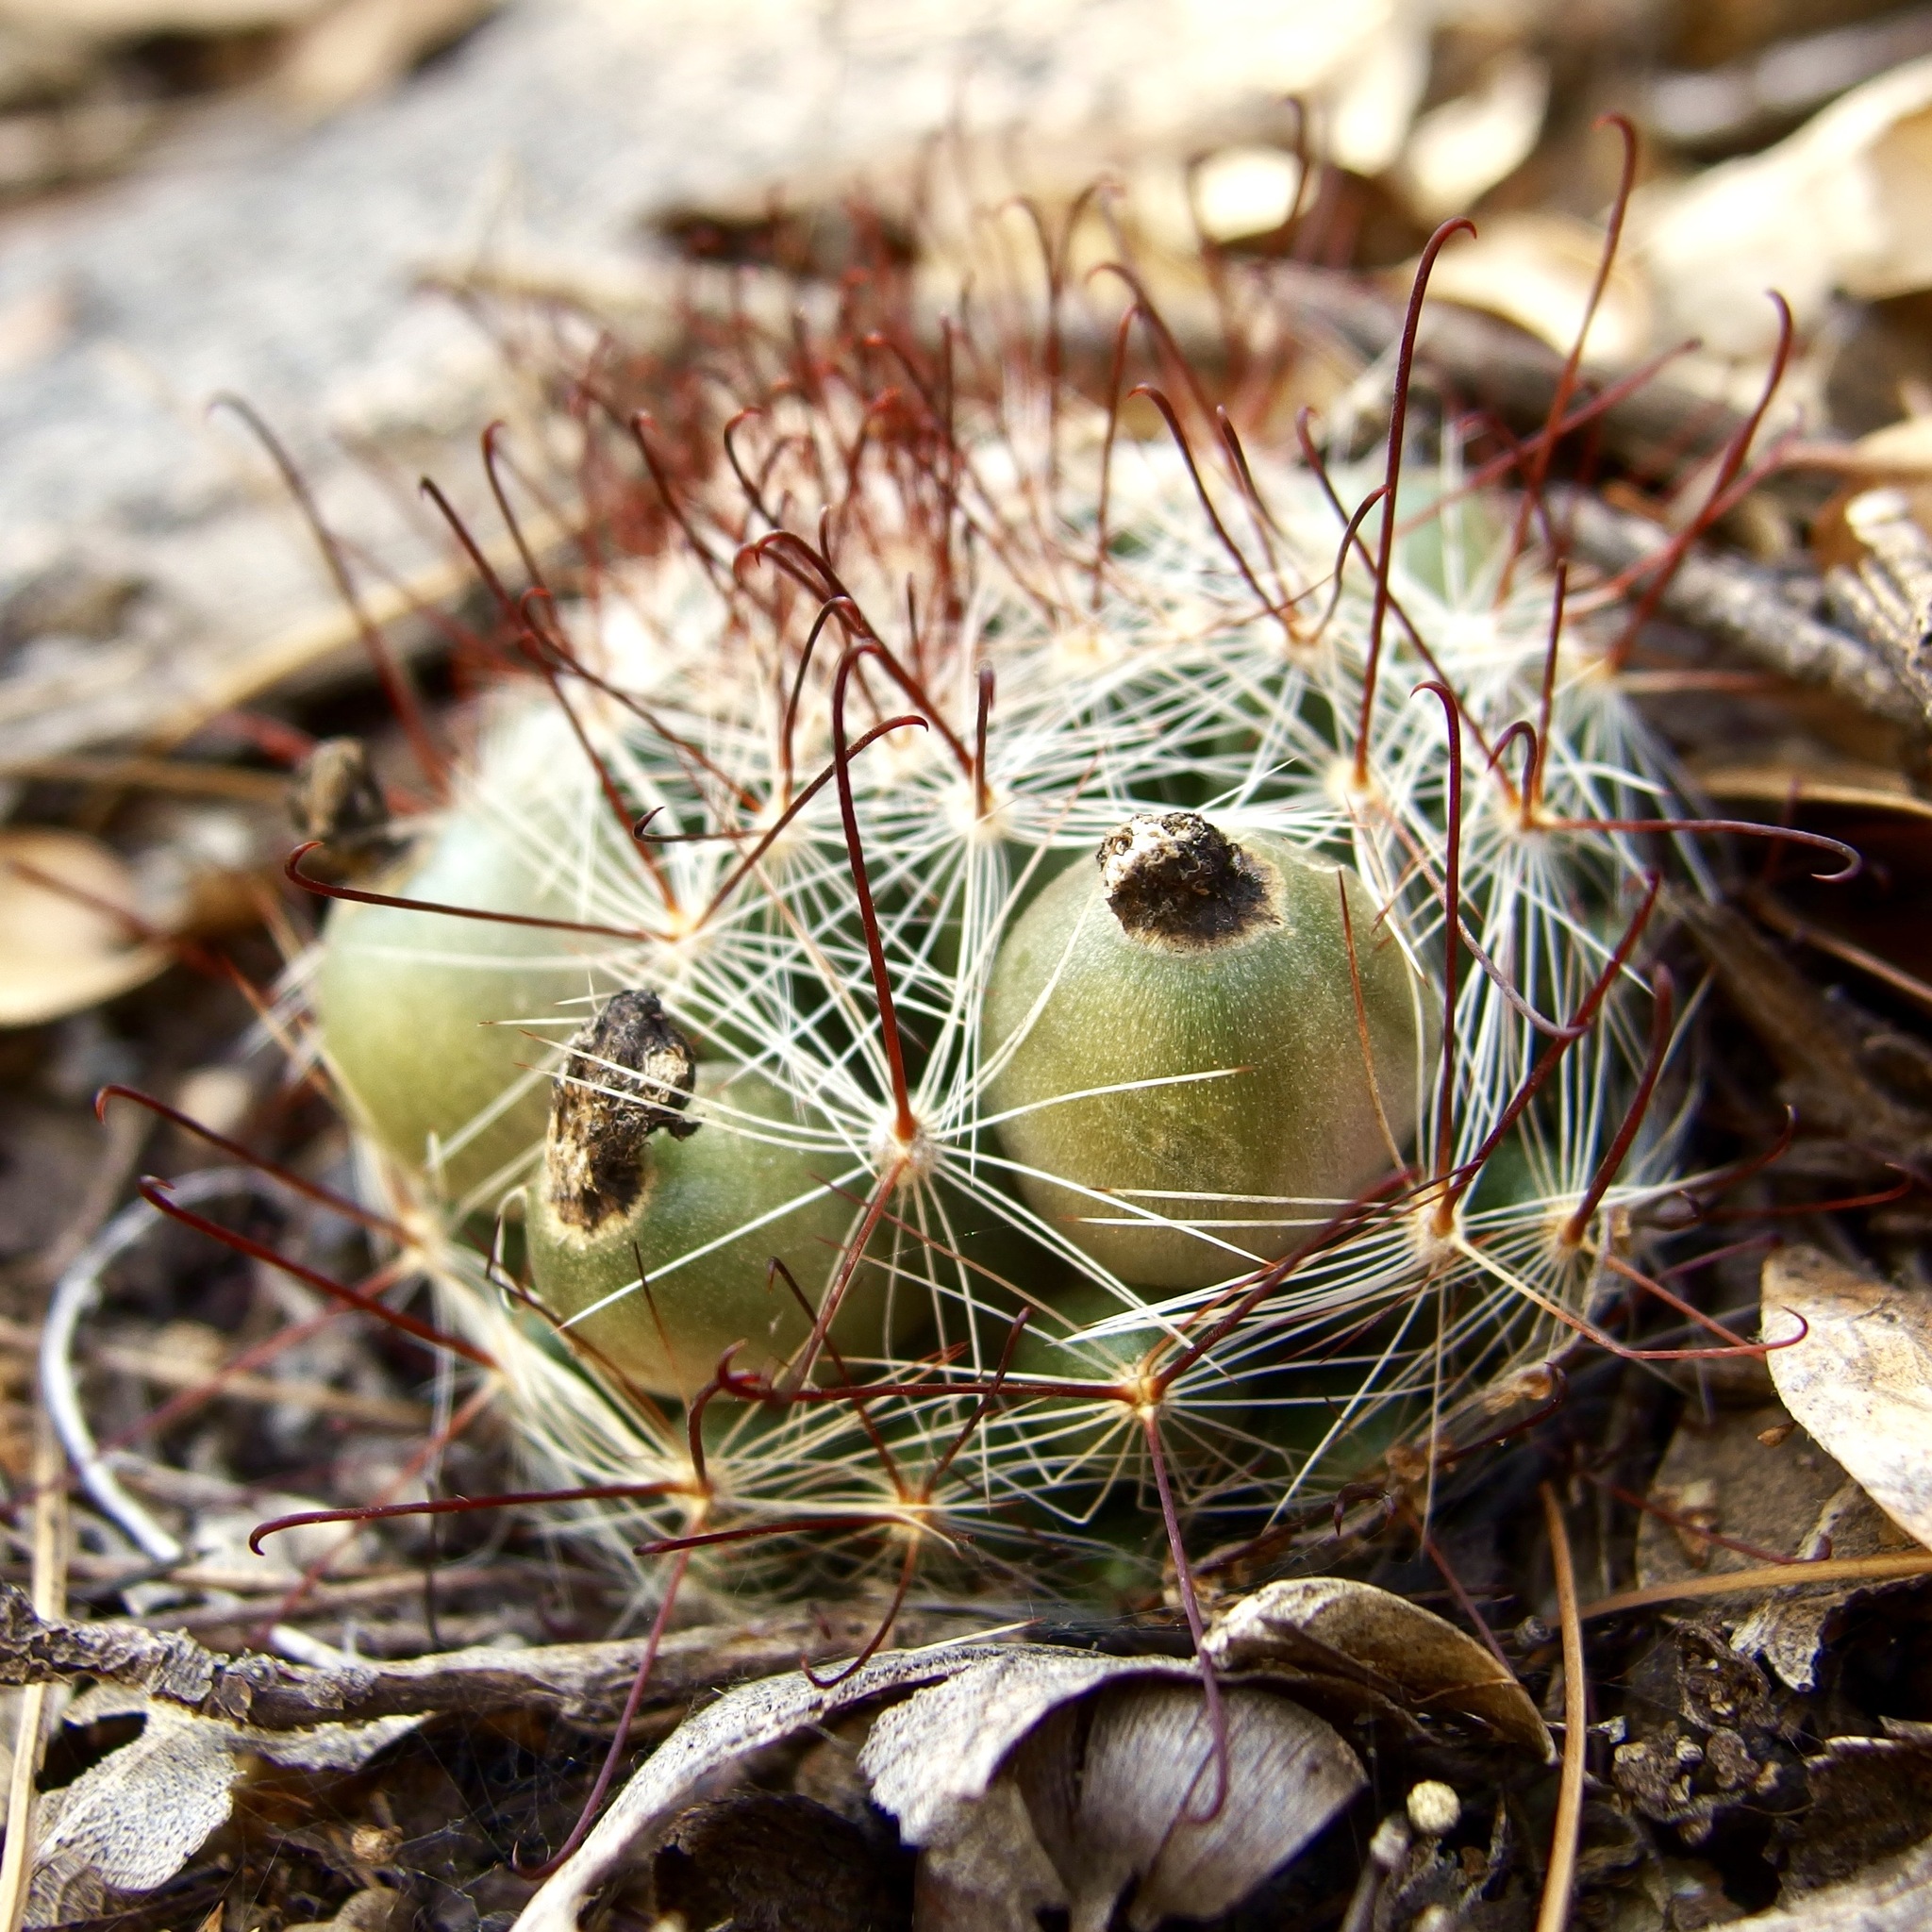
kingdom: Plantae
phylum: Tracheophyta
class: Magnoliopsida
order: Caryophyllales
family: Cactaceae
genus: Cochemiea
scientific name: Cochemiea wrightii
